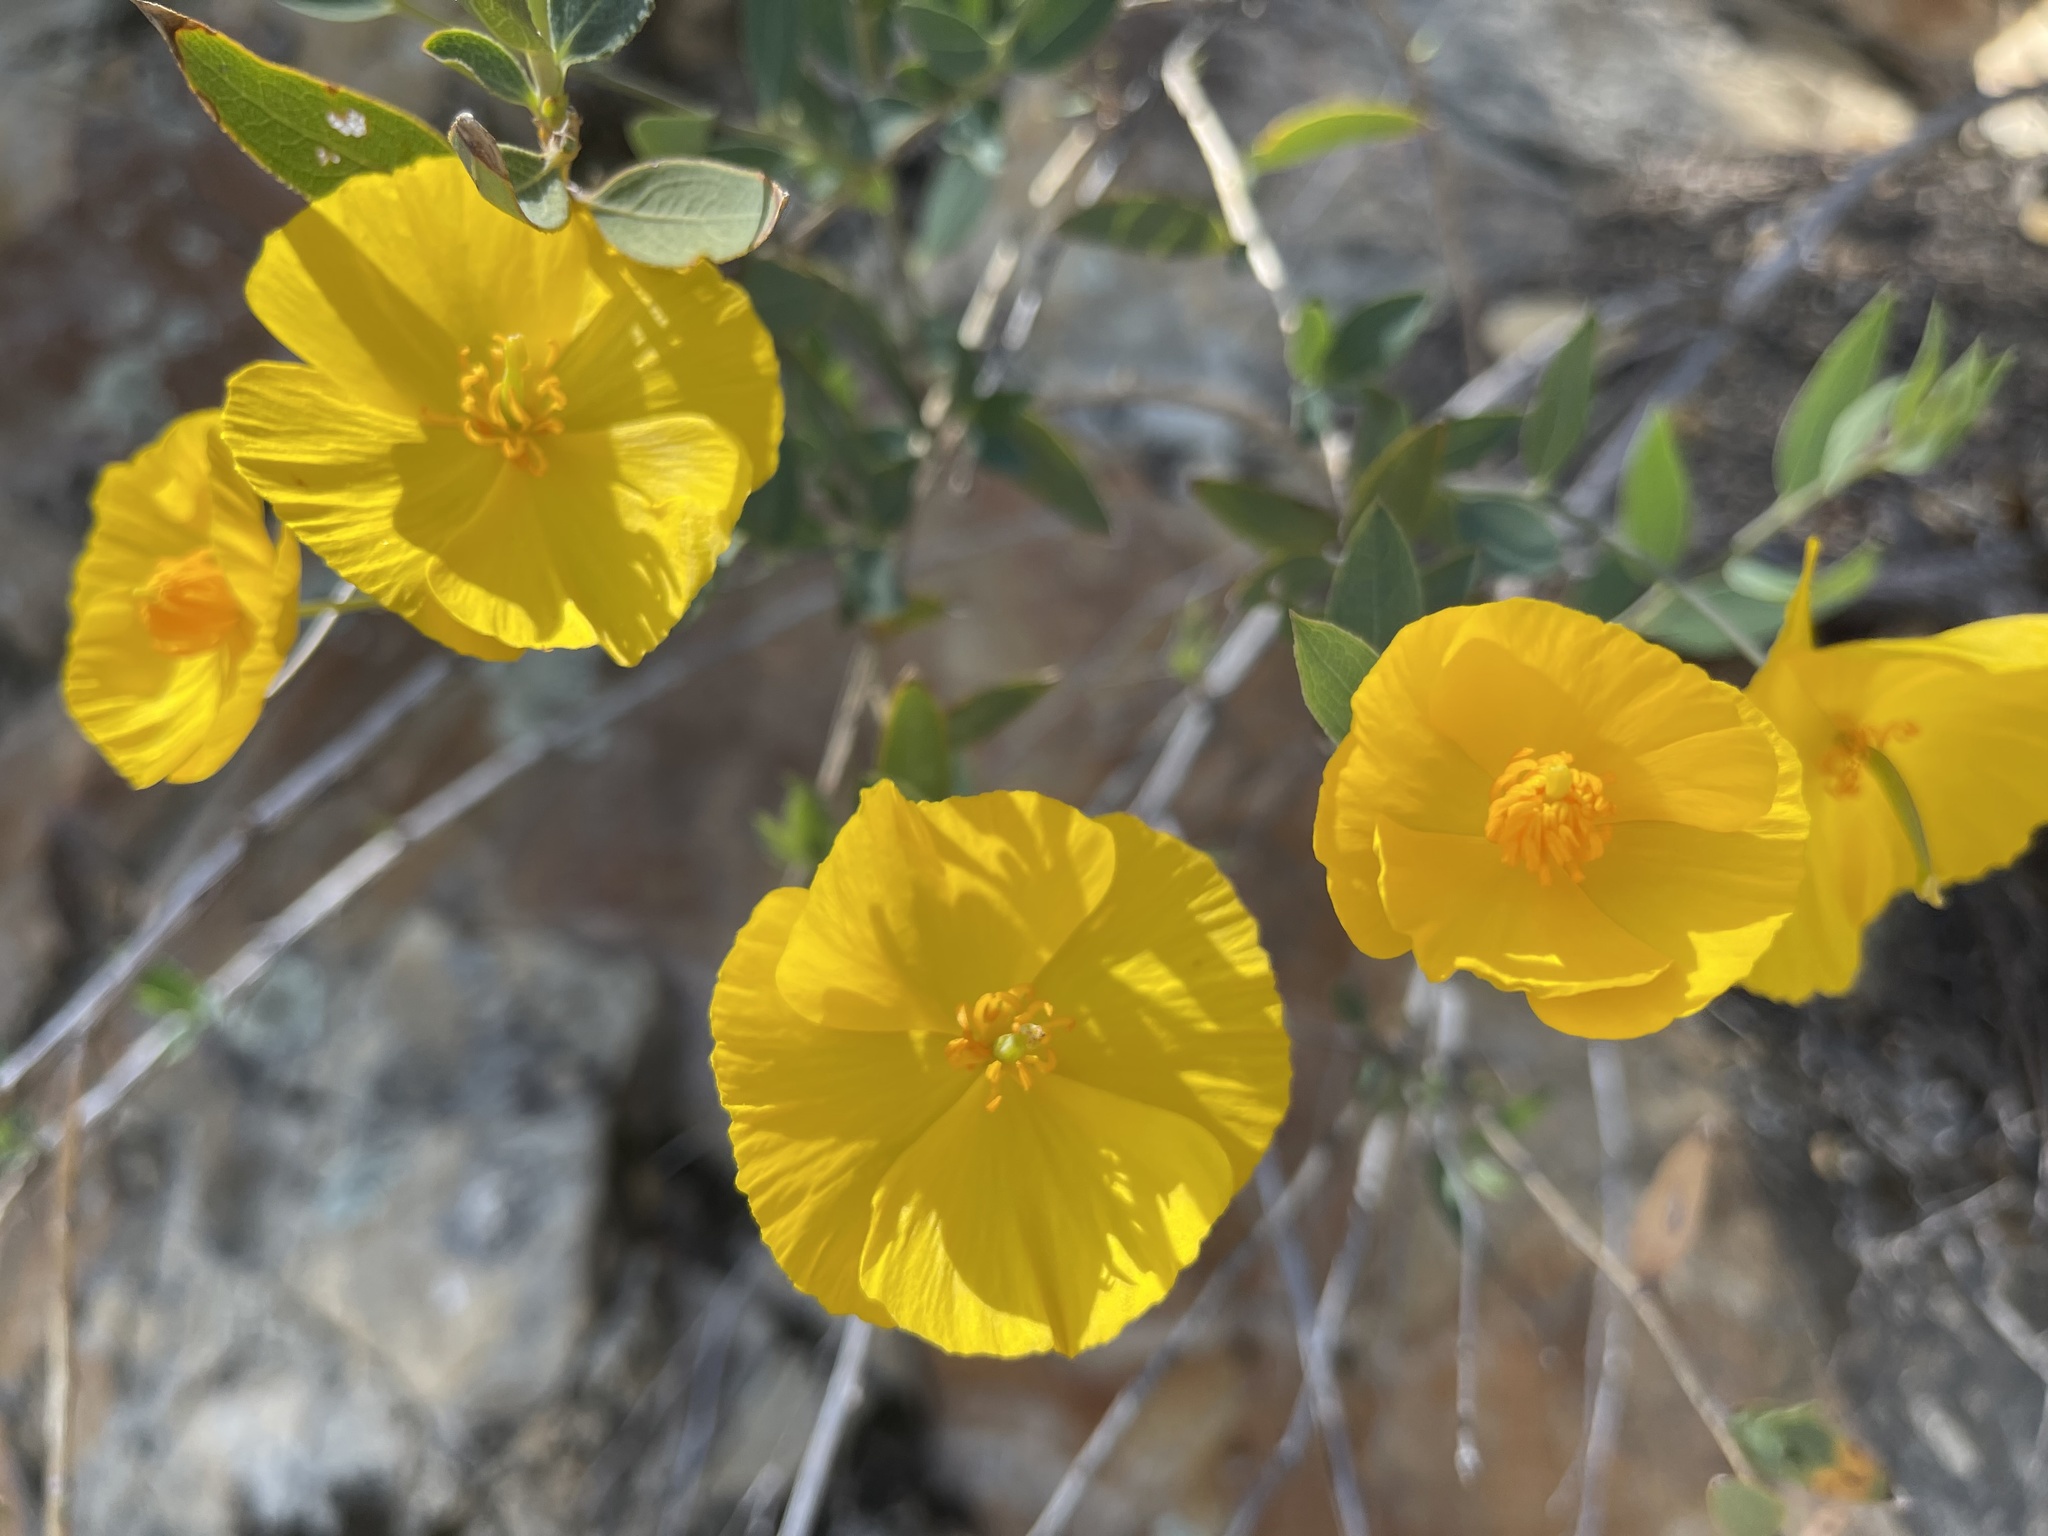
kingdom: Plantae
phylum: Tracheophyta
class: Magnoliopsida
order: Ranunculales
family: Papaveraceae
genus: Dendromecon
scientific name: Dendromecon rigida
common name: Tree poppy
